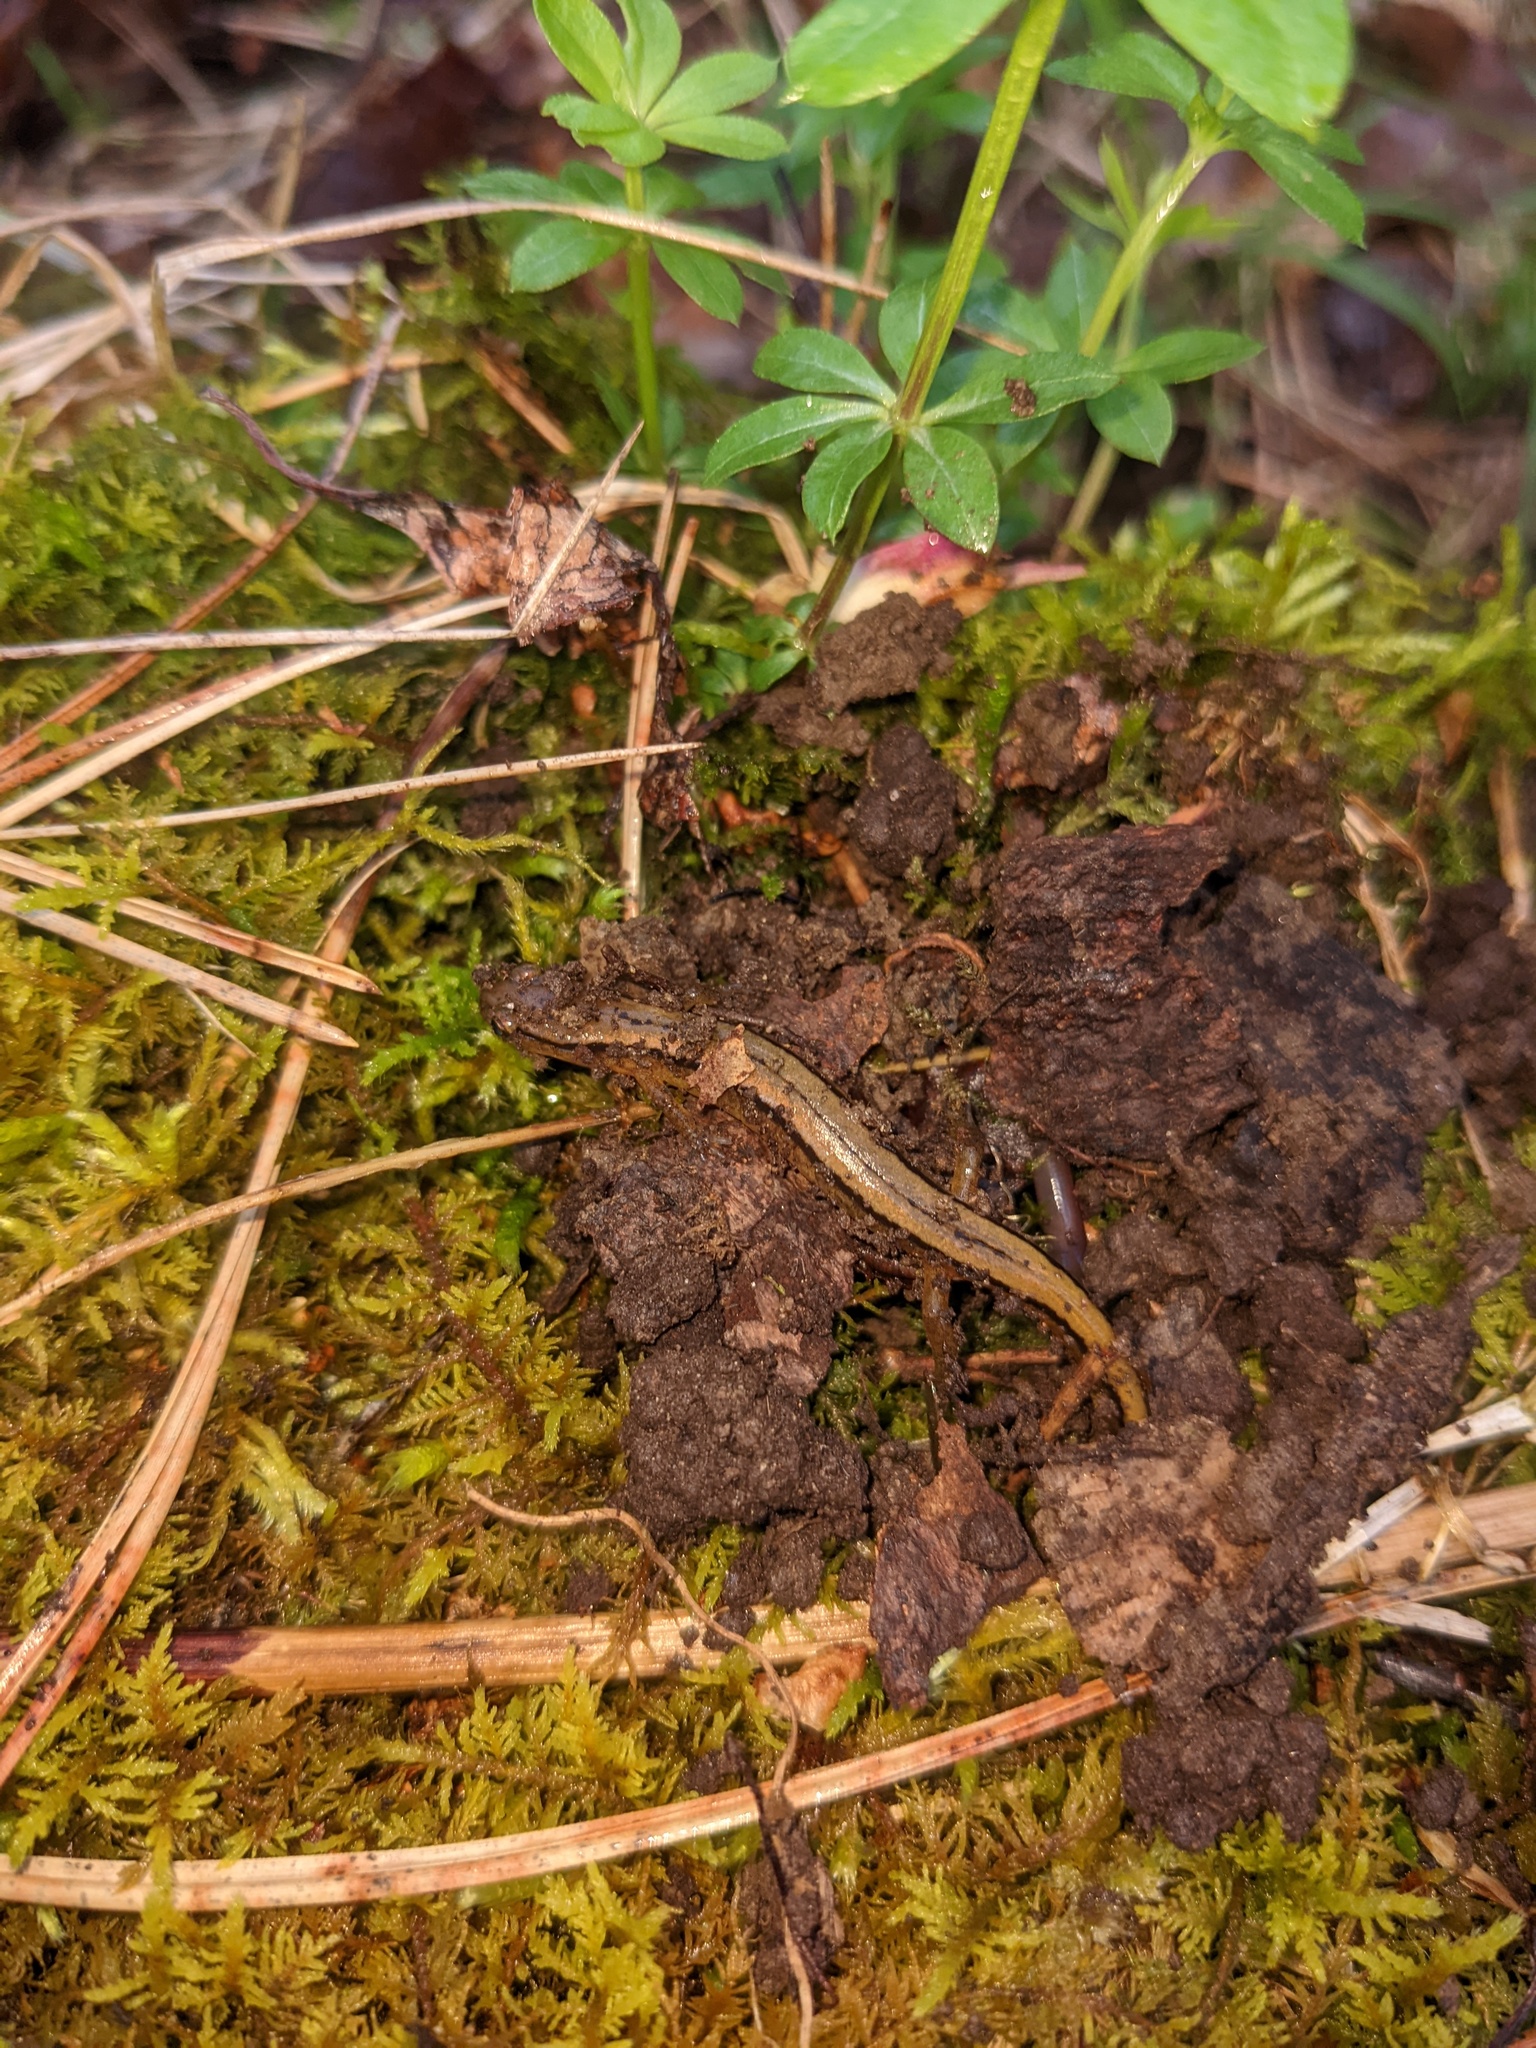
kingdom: Animalia
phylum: Chordata
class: Amphibia
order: Caudata
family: Plethodontidae
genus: Eurycea
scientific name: Eurycea bislineata
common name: Northern two-lined salamander
